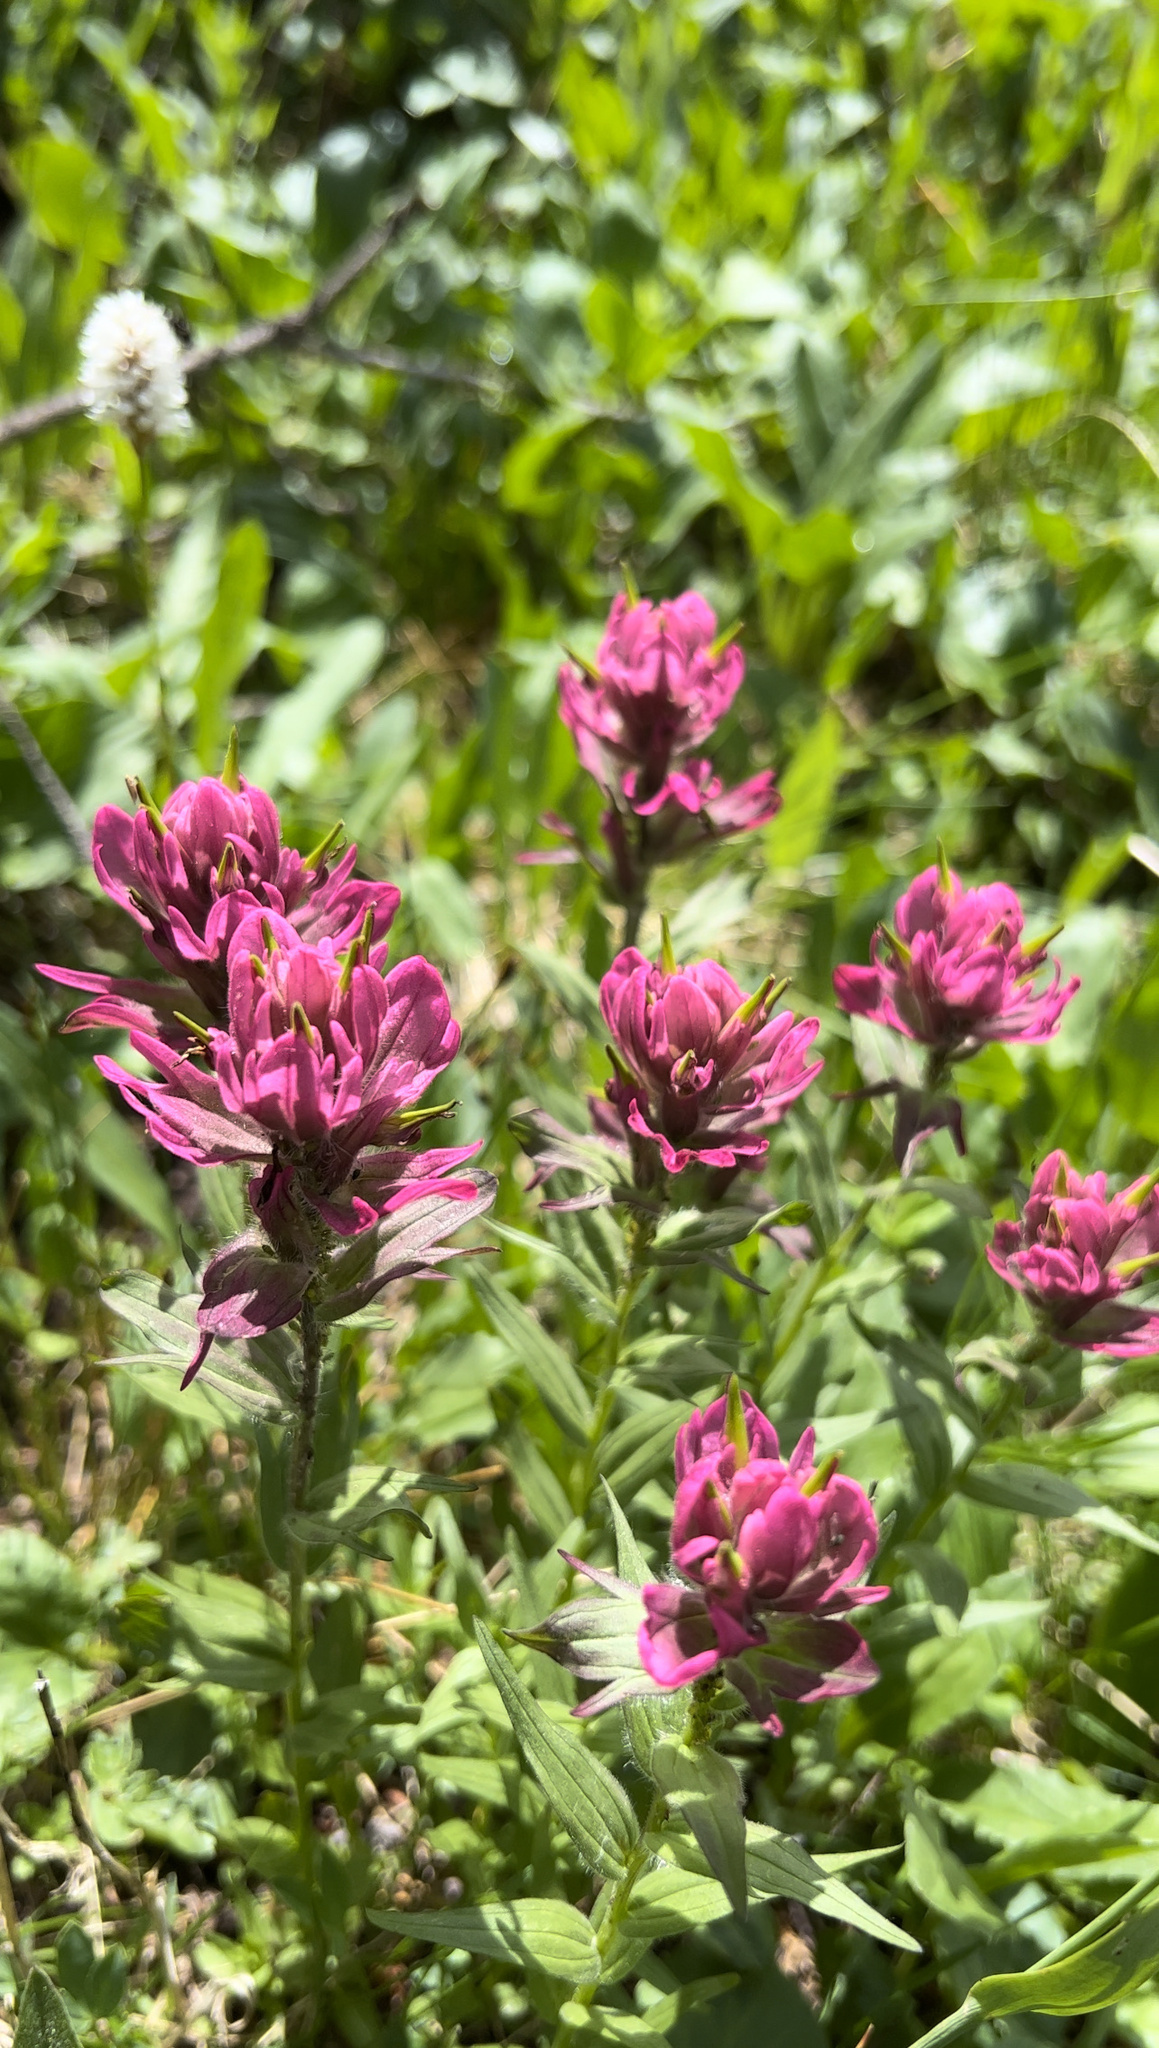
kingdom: Plantae
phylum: Tracheophyta
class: Magnoliopsida
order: Lamiales
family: Orobanchaceae
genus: Castilleja
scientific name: Castilleja rhexifolia
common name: Rocky mountain paintbrush
